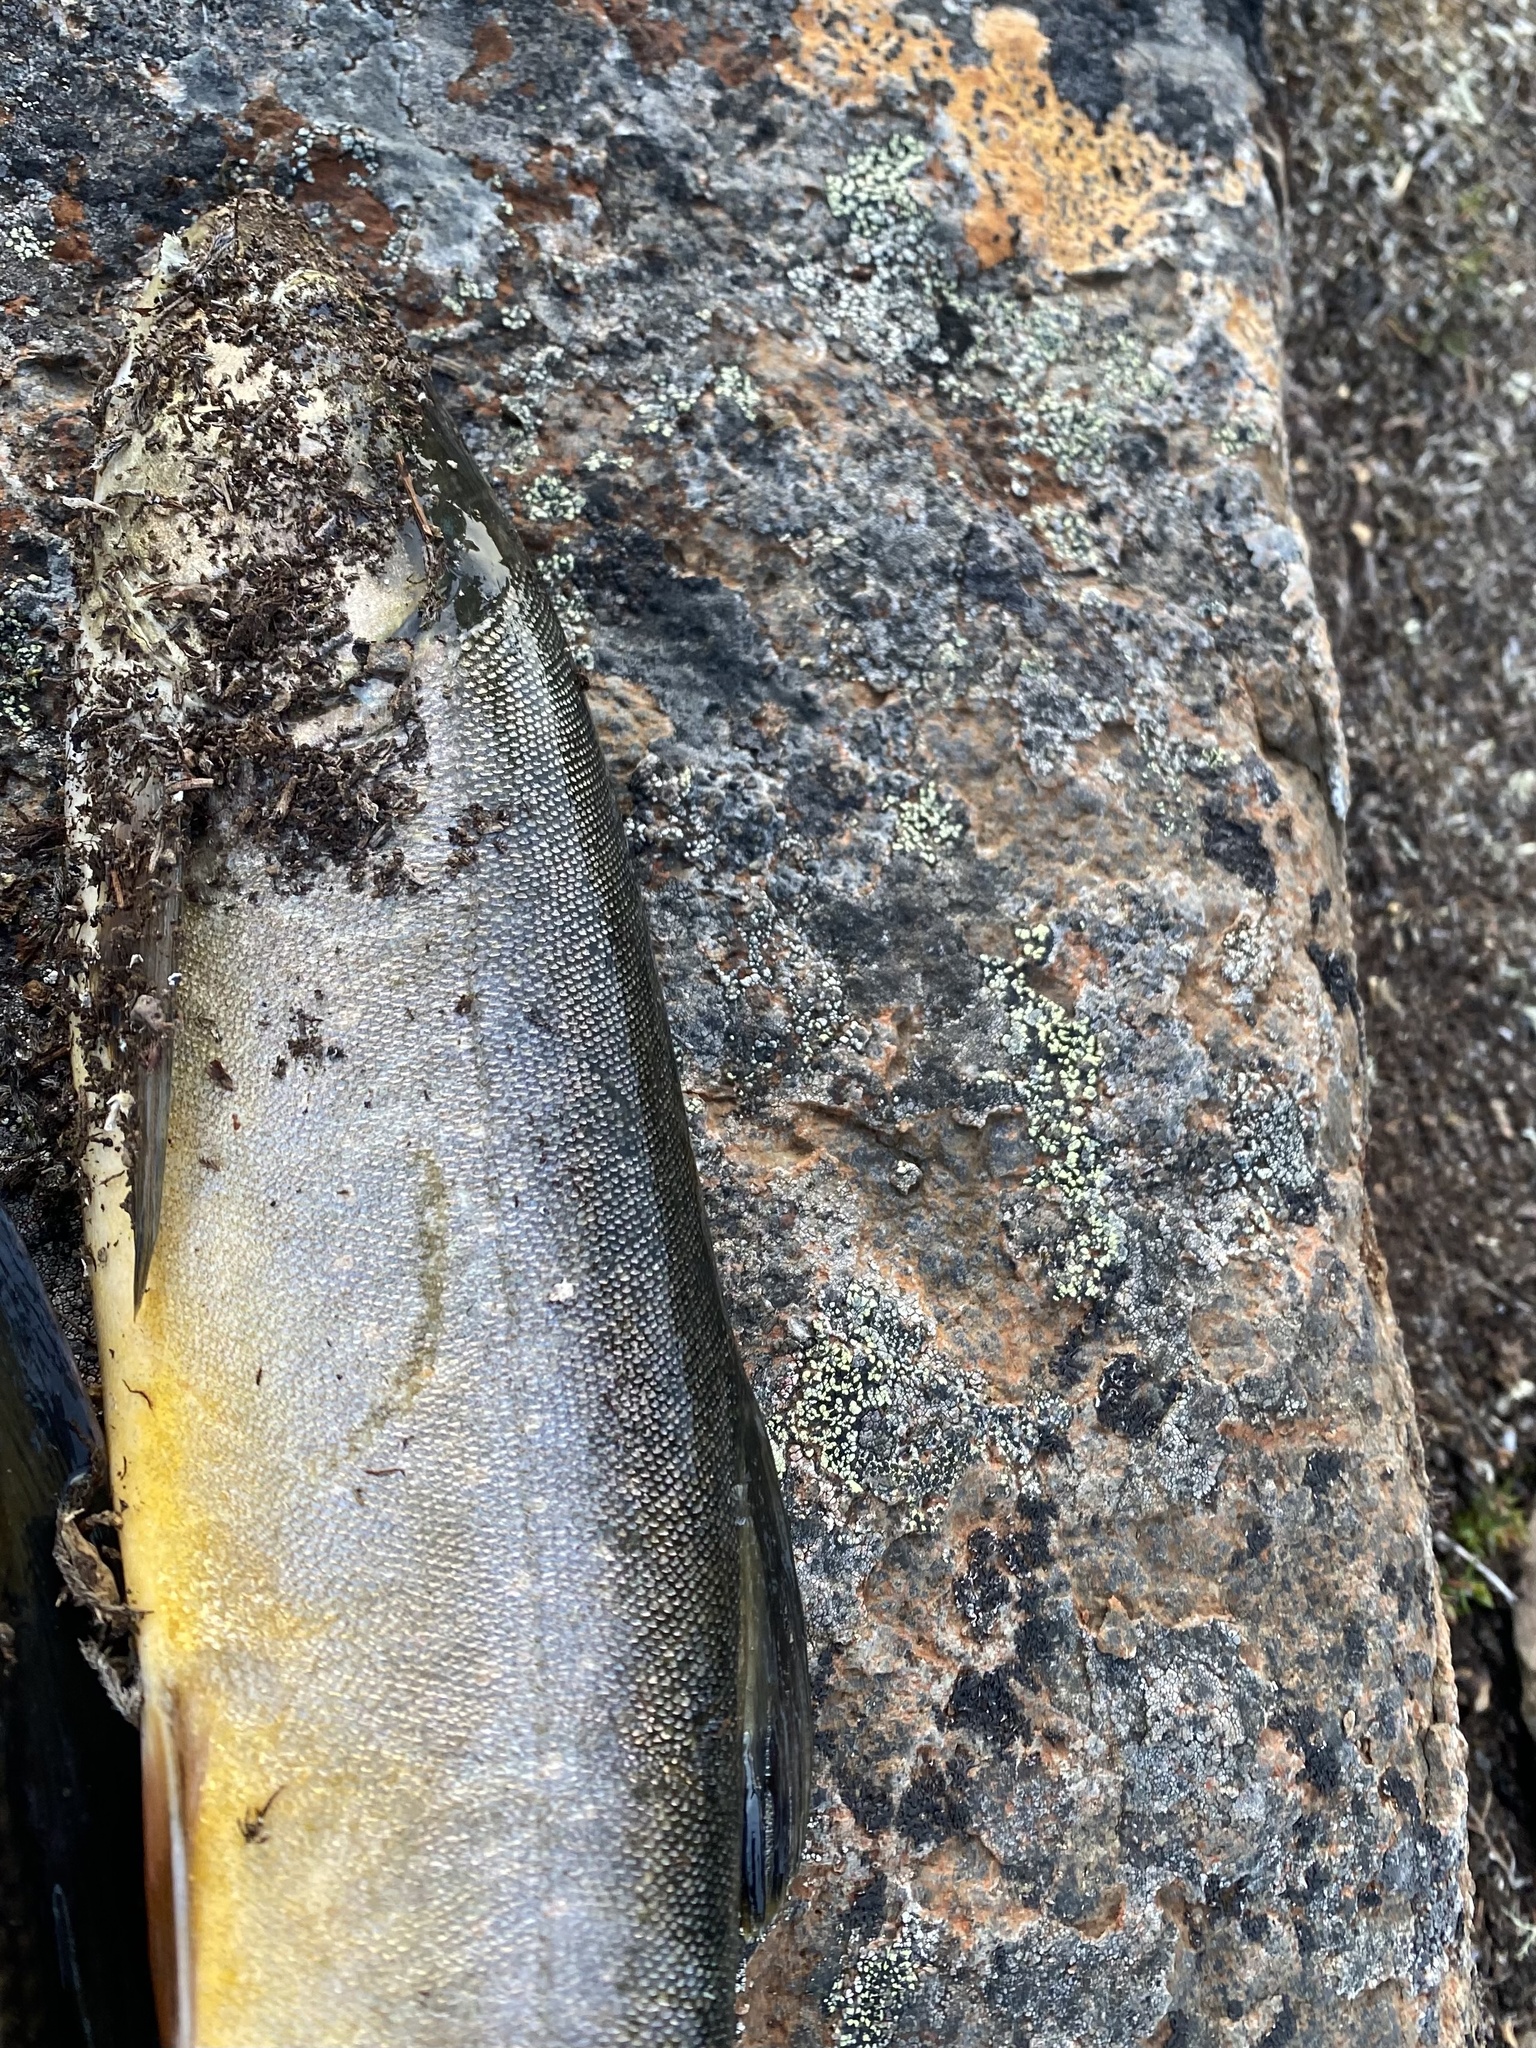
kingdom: Animalia
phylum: Chordata
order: Salmoniformes
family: Salmonidae
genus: Salvelinus
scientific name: Salvelinus drjagini
